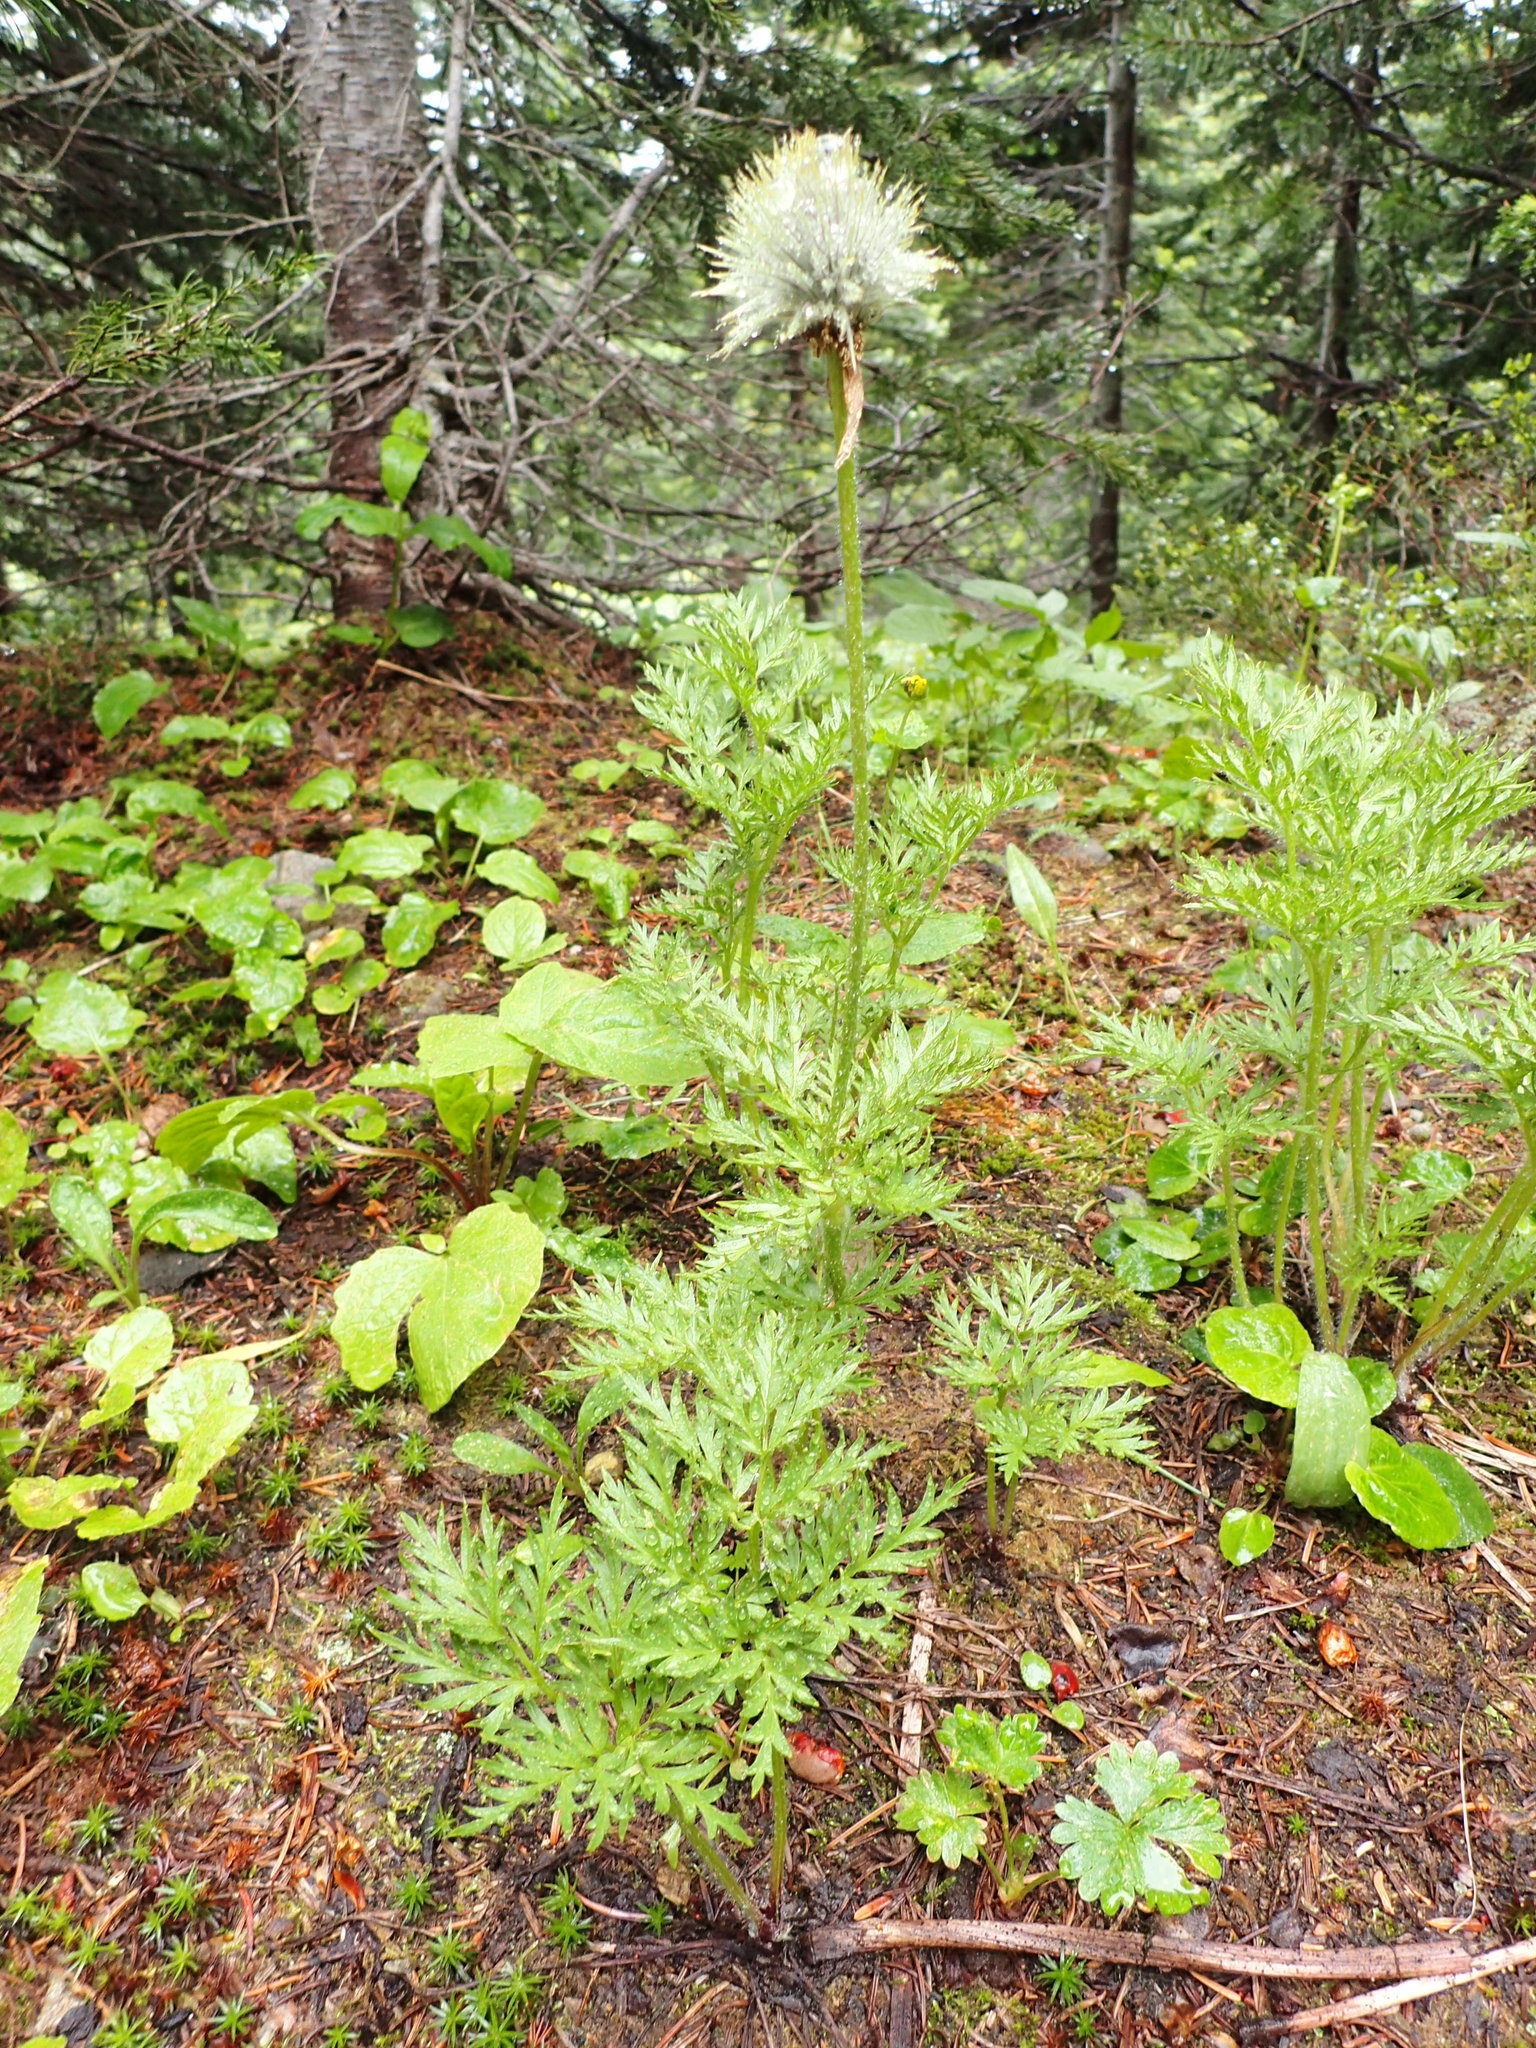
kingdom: Plantae
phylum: Tracheophyta
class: Magnoliopsida
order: Ranunculales
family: Ranunculaceae
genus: Pulsatilla
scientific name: Pulsatilla occidentalis
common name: Mountain pasqueflower
